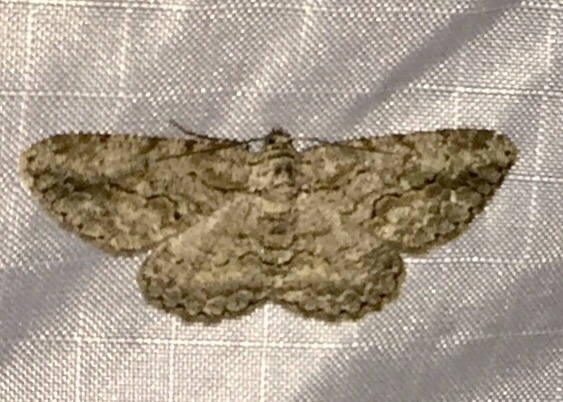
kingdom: Animalia
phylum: Arthropoda
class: Insecta
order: Lepidoptera
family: Geometridae
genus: Anavitrinella
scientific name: Anavitrinella pampinaria
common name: Common gray
